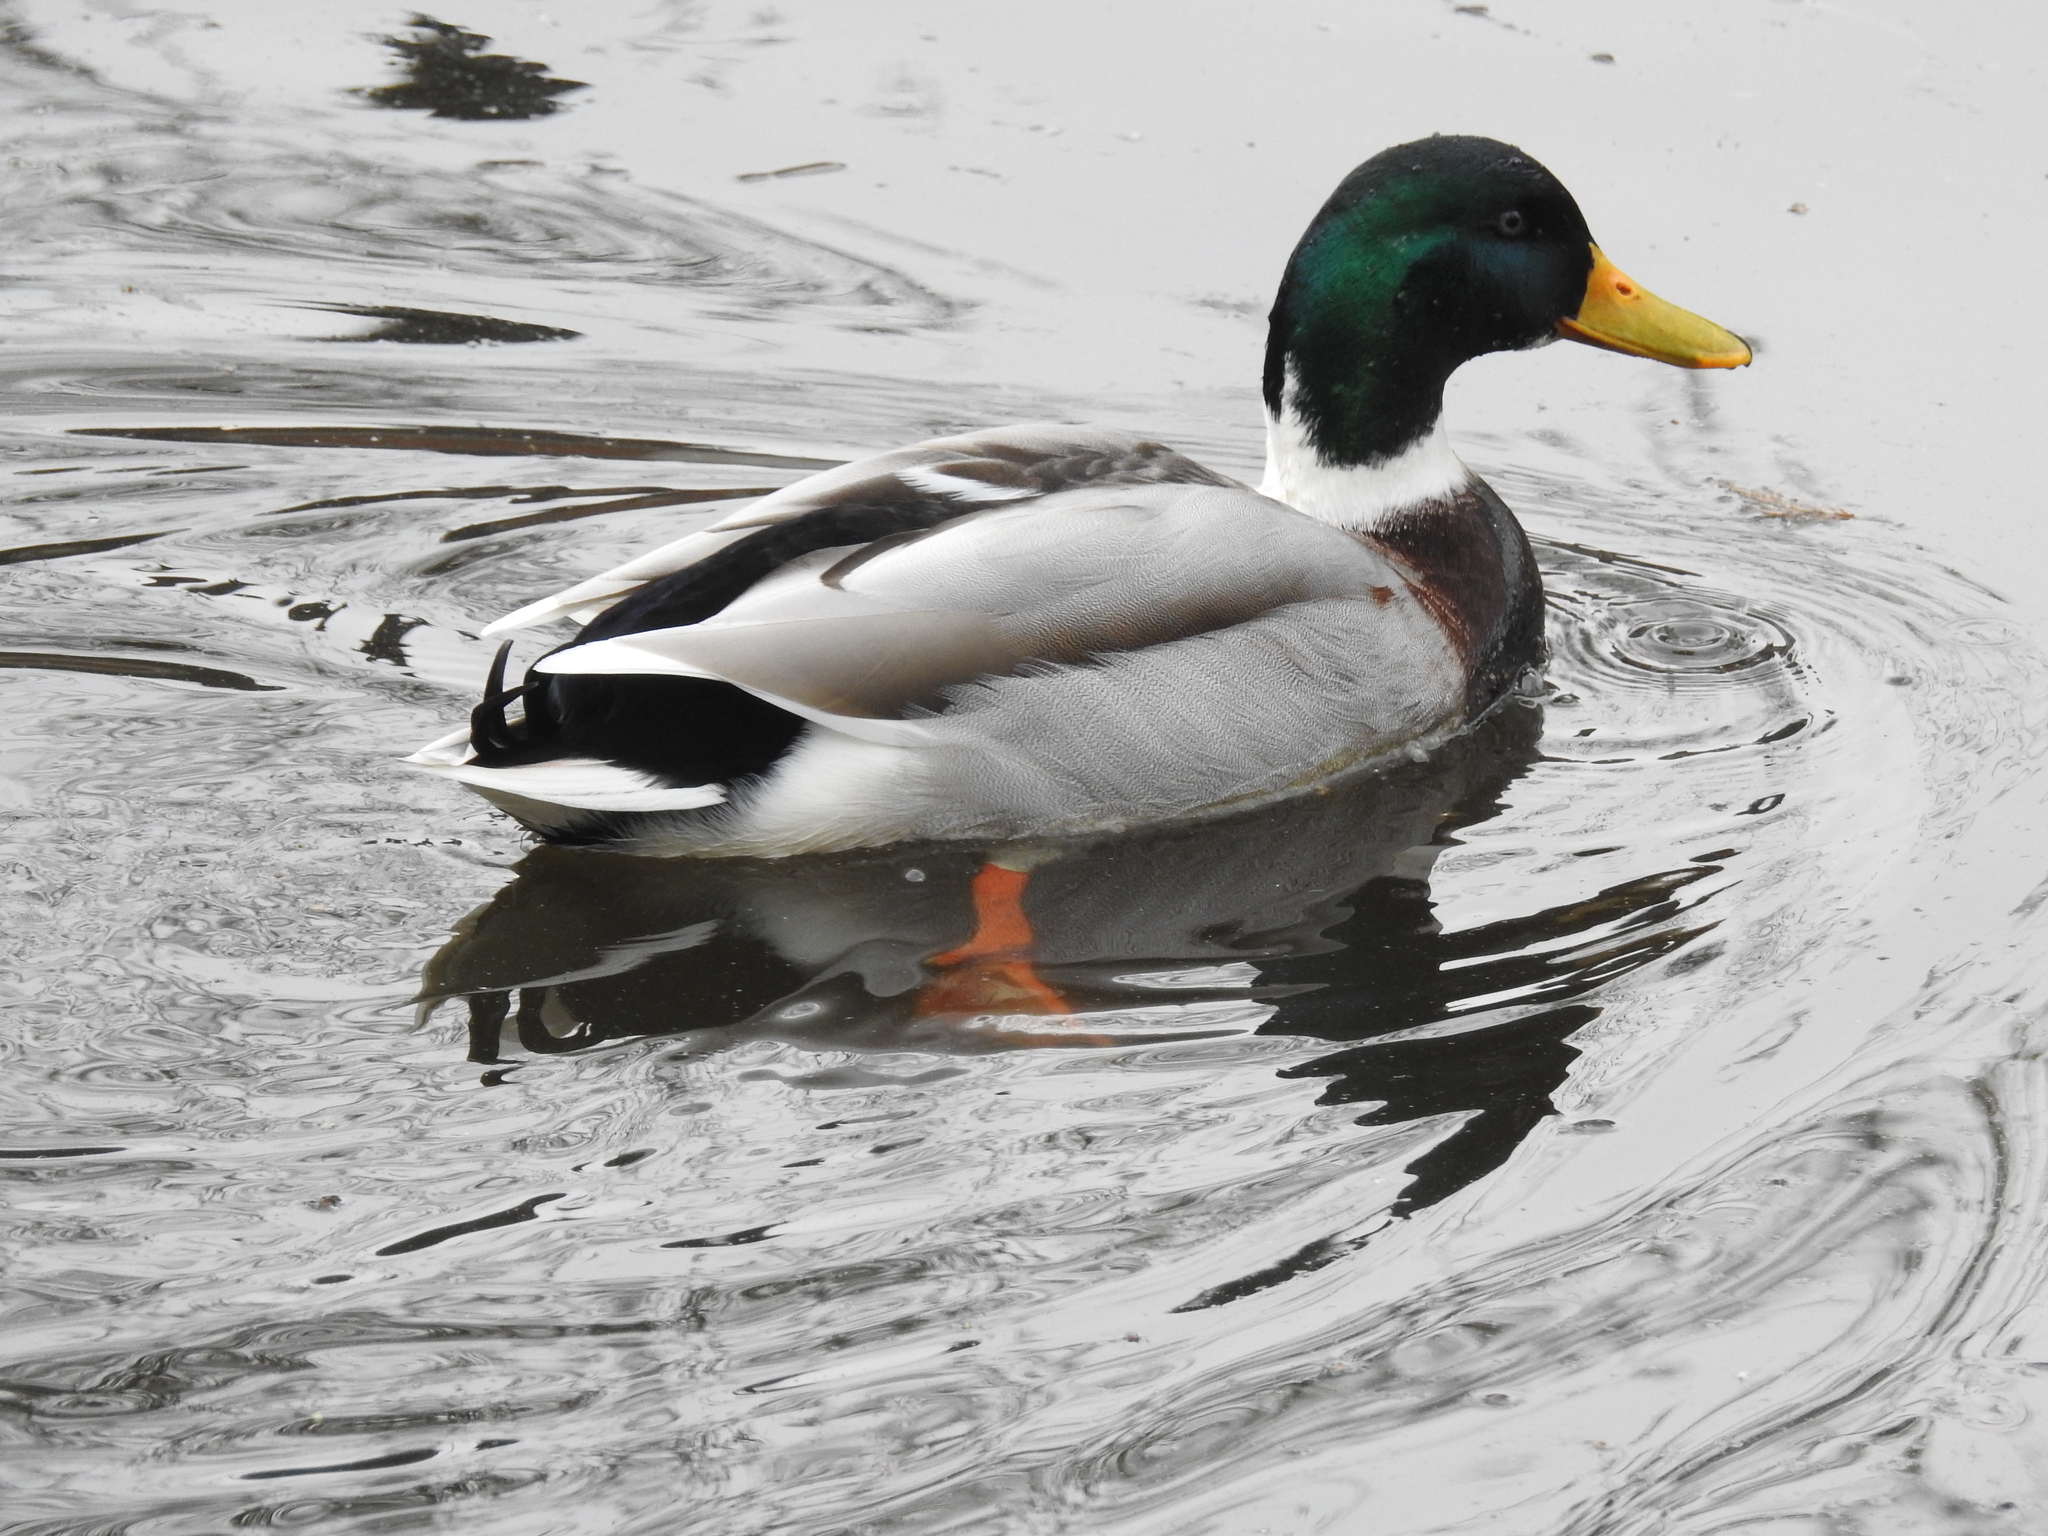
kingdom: Animalia
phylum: Chordata
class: Aves
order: Anseriformes
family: Anatidae
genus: Anas
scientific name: Anas platyrhynchos
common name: Mallard
